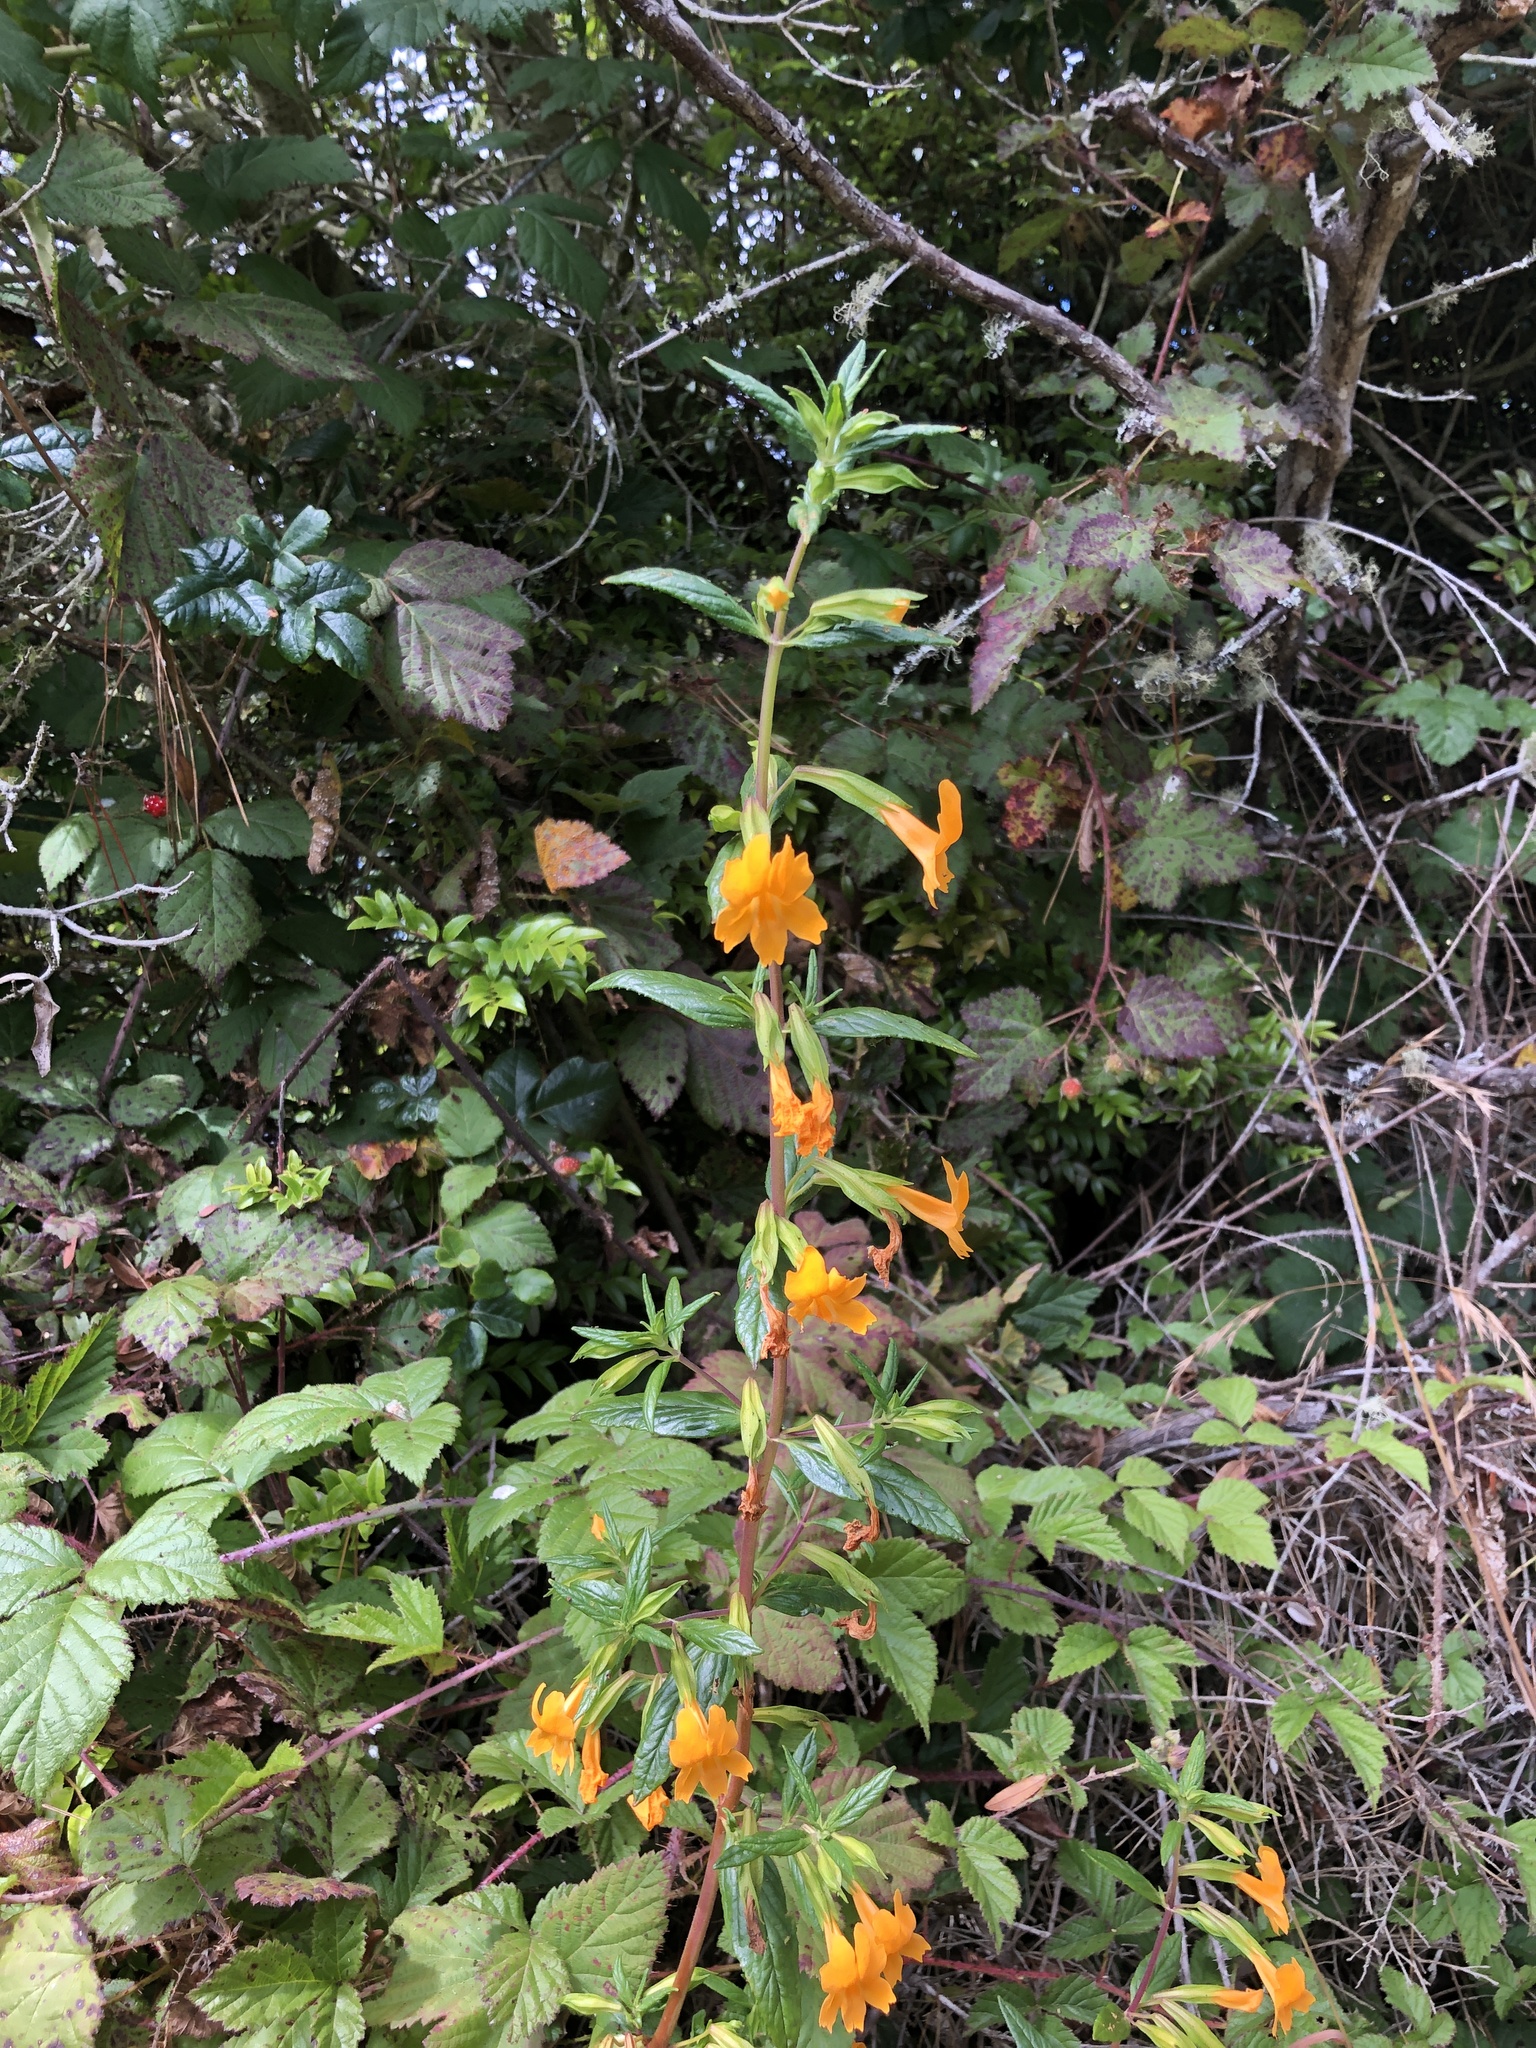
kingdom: Plantae
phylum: Tracheophyta
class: Magnoliopsida
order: Lamiales
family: Phrymaceae
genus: Diplacus
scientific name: Diplacus aurantiacus
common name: Bush monkey-flower
